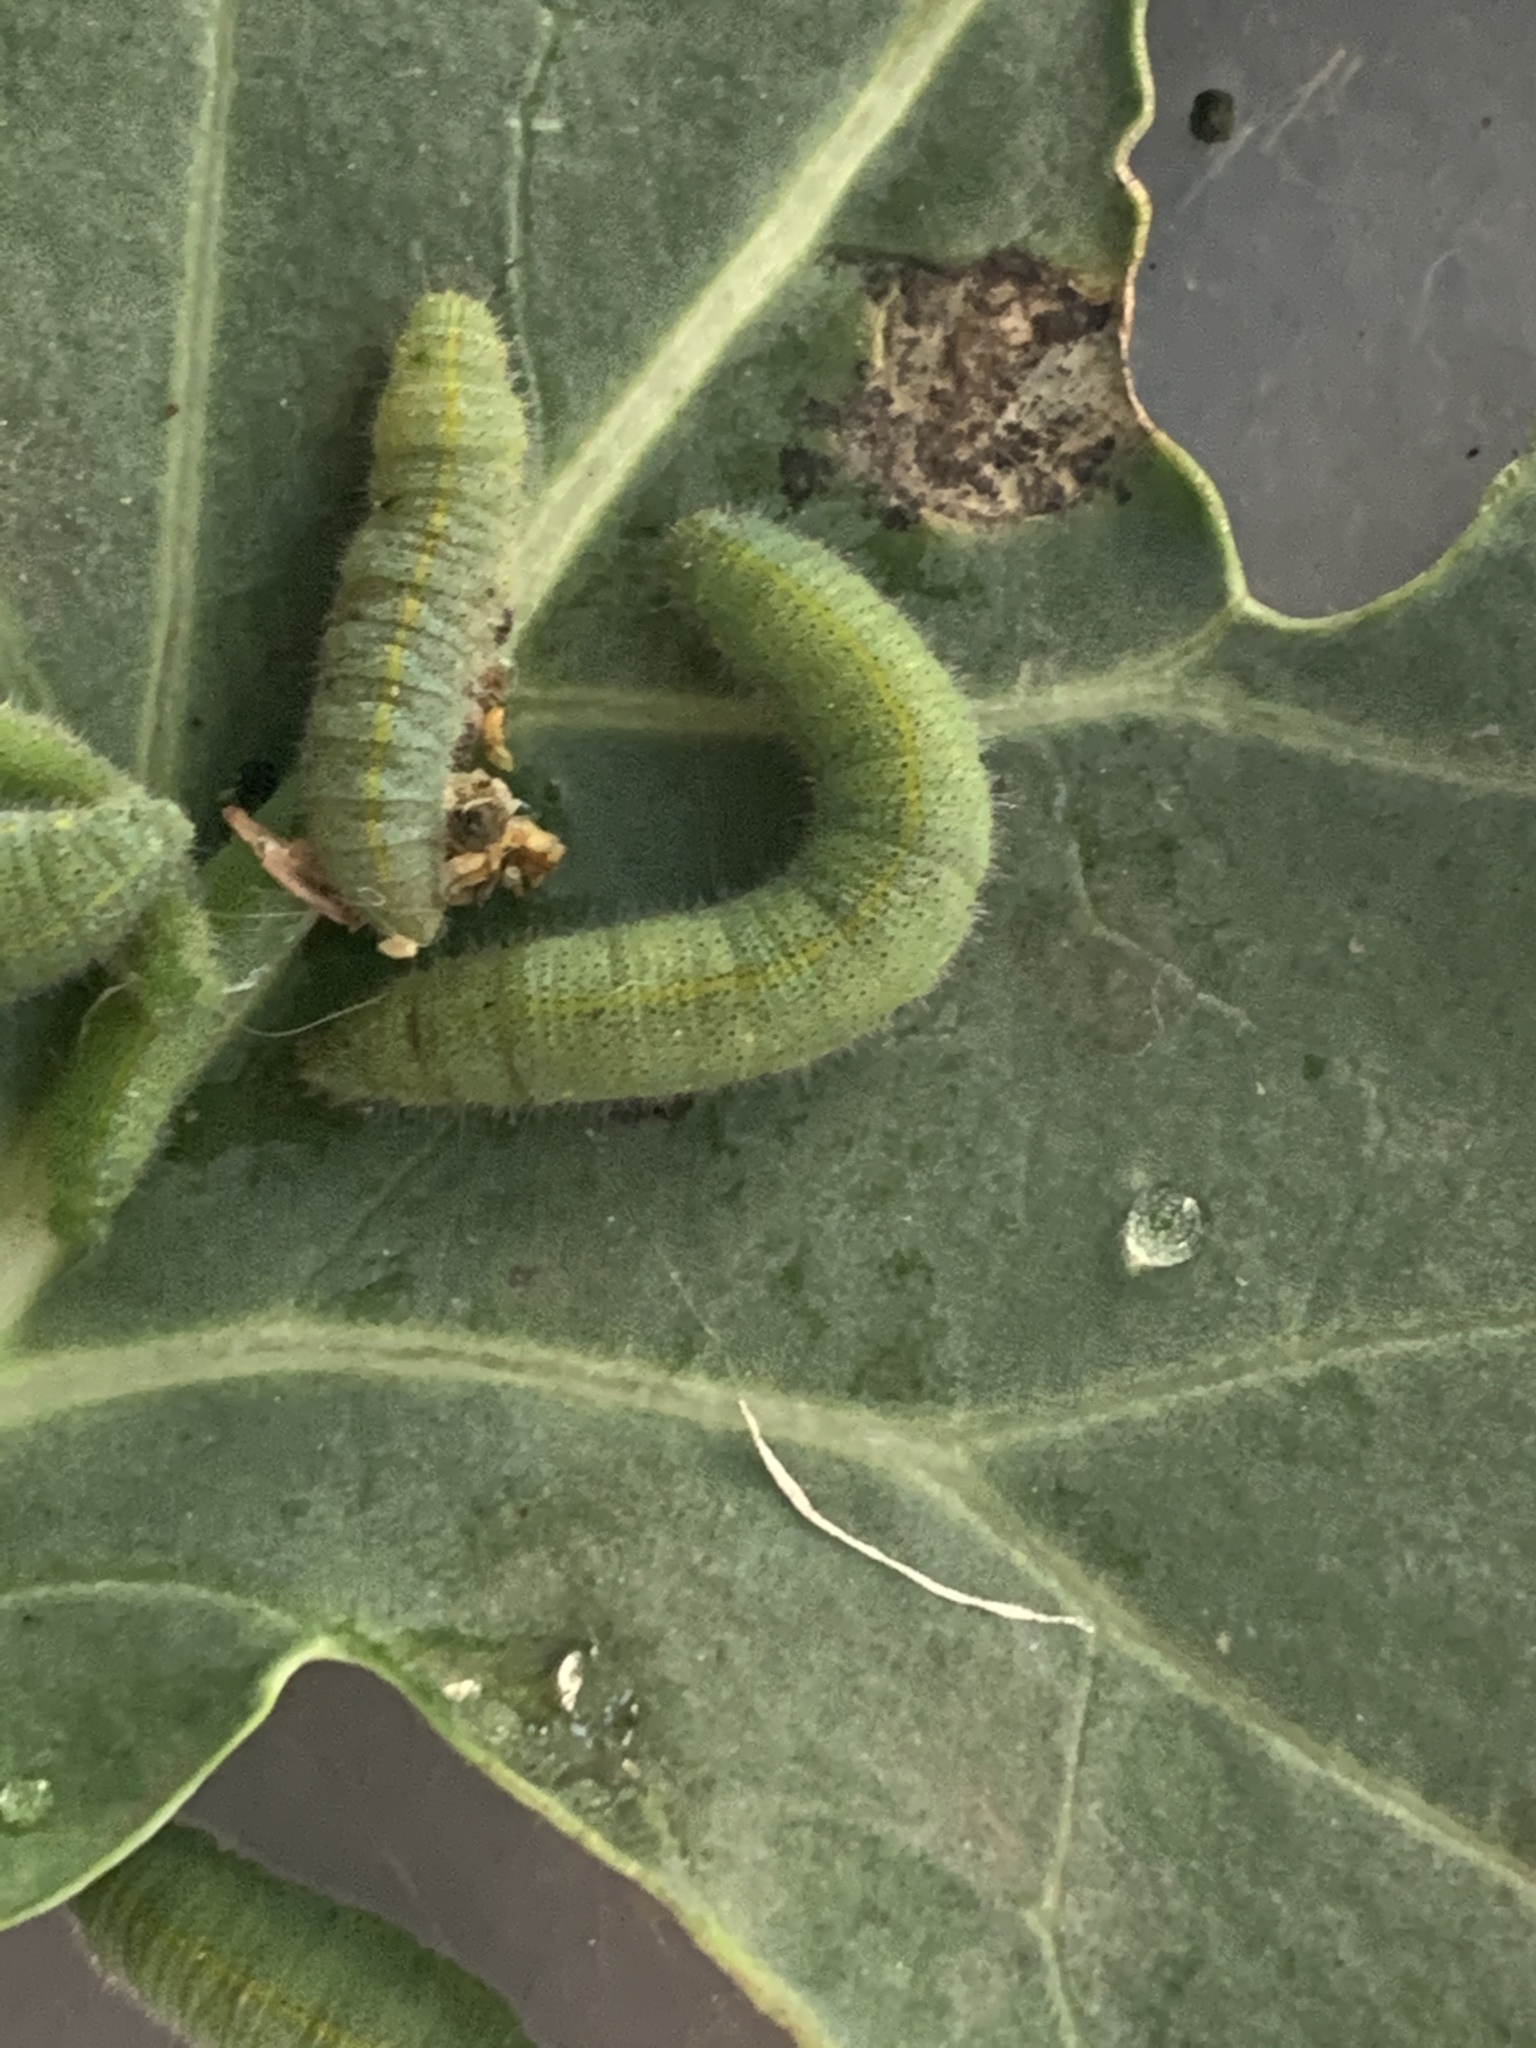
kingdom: Animalia
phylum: Arthropoda
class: Insecta
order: Lepidoptera
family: Pieridae
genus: Pieris
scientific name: Pieris rapae
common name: Small white
